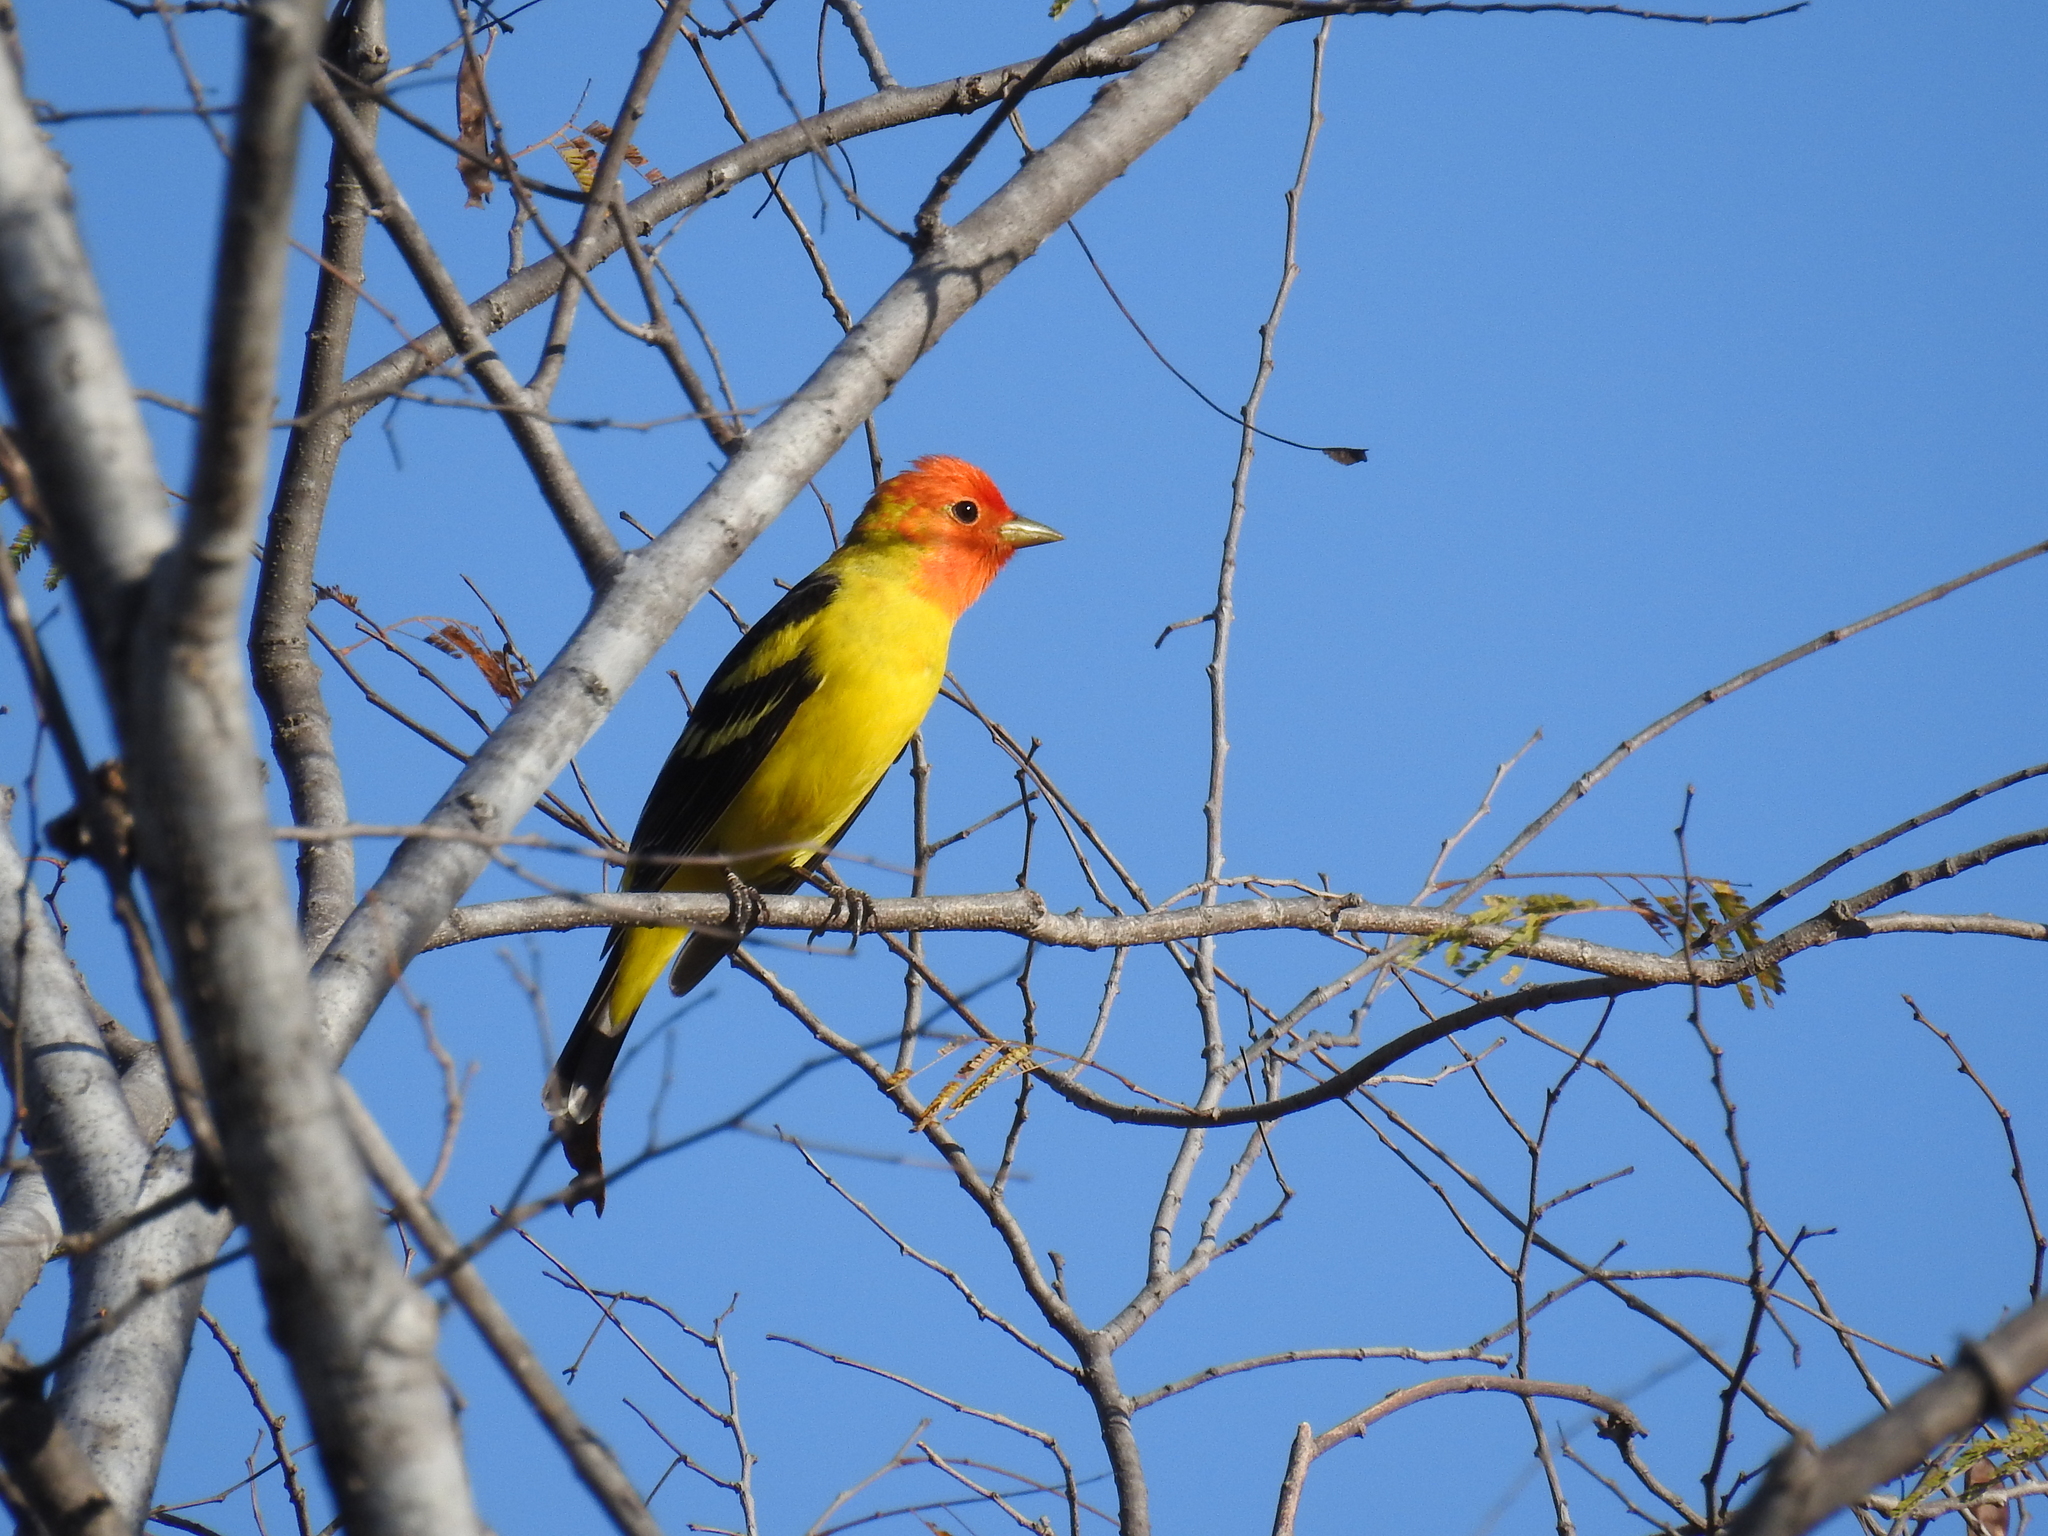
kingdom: Animalia
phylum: Chordata
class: Aves
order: Passeriformes
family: Cardinalidae
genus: Piranga
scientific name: Piranga ludoviciana
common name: Western tanager
